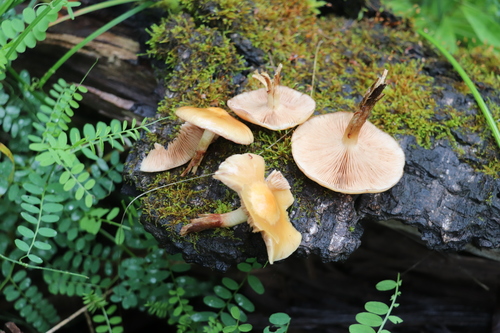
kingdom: Fungi
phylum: Basidiomycota
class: Agaricomycetes
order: Agaricales
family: Strophariaceae
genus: Kuehneromyces
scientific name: Kuehneromyces mutabilis
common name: Sheathed woodtuft
